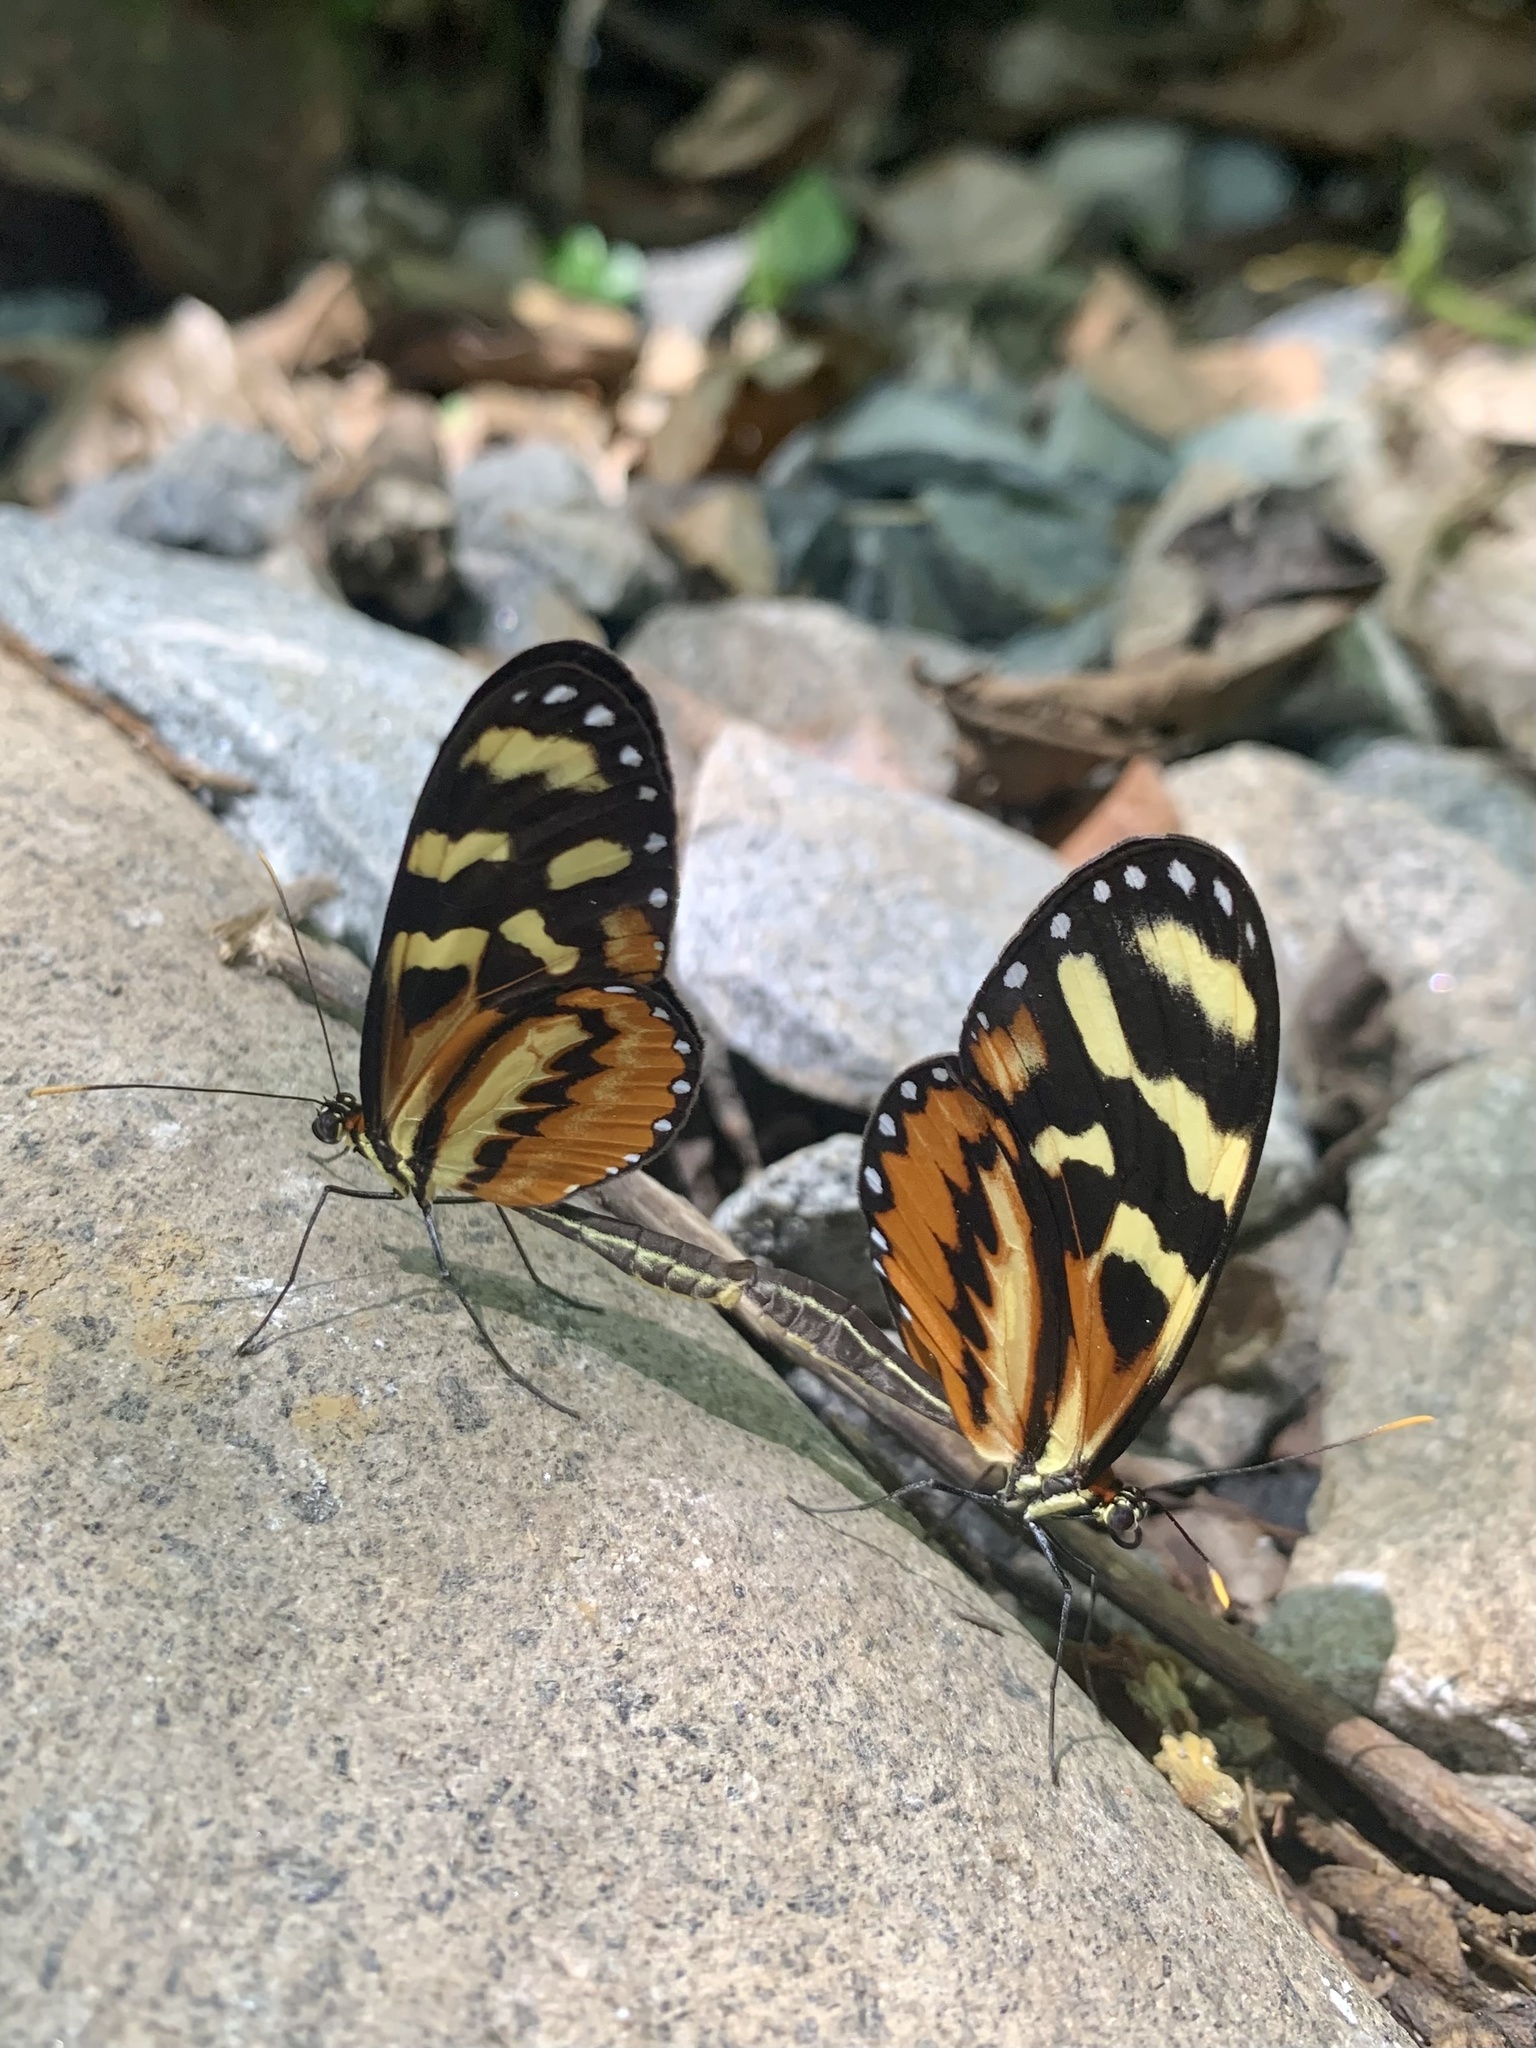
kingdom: Animalia
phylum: Arthropoda
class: Insecta
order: Lepidoptera
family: Nymphalidae
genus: Mechanitis
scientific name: Mechanitis polymnia
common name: Disturbed tigerwing
